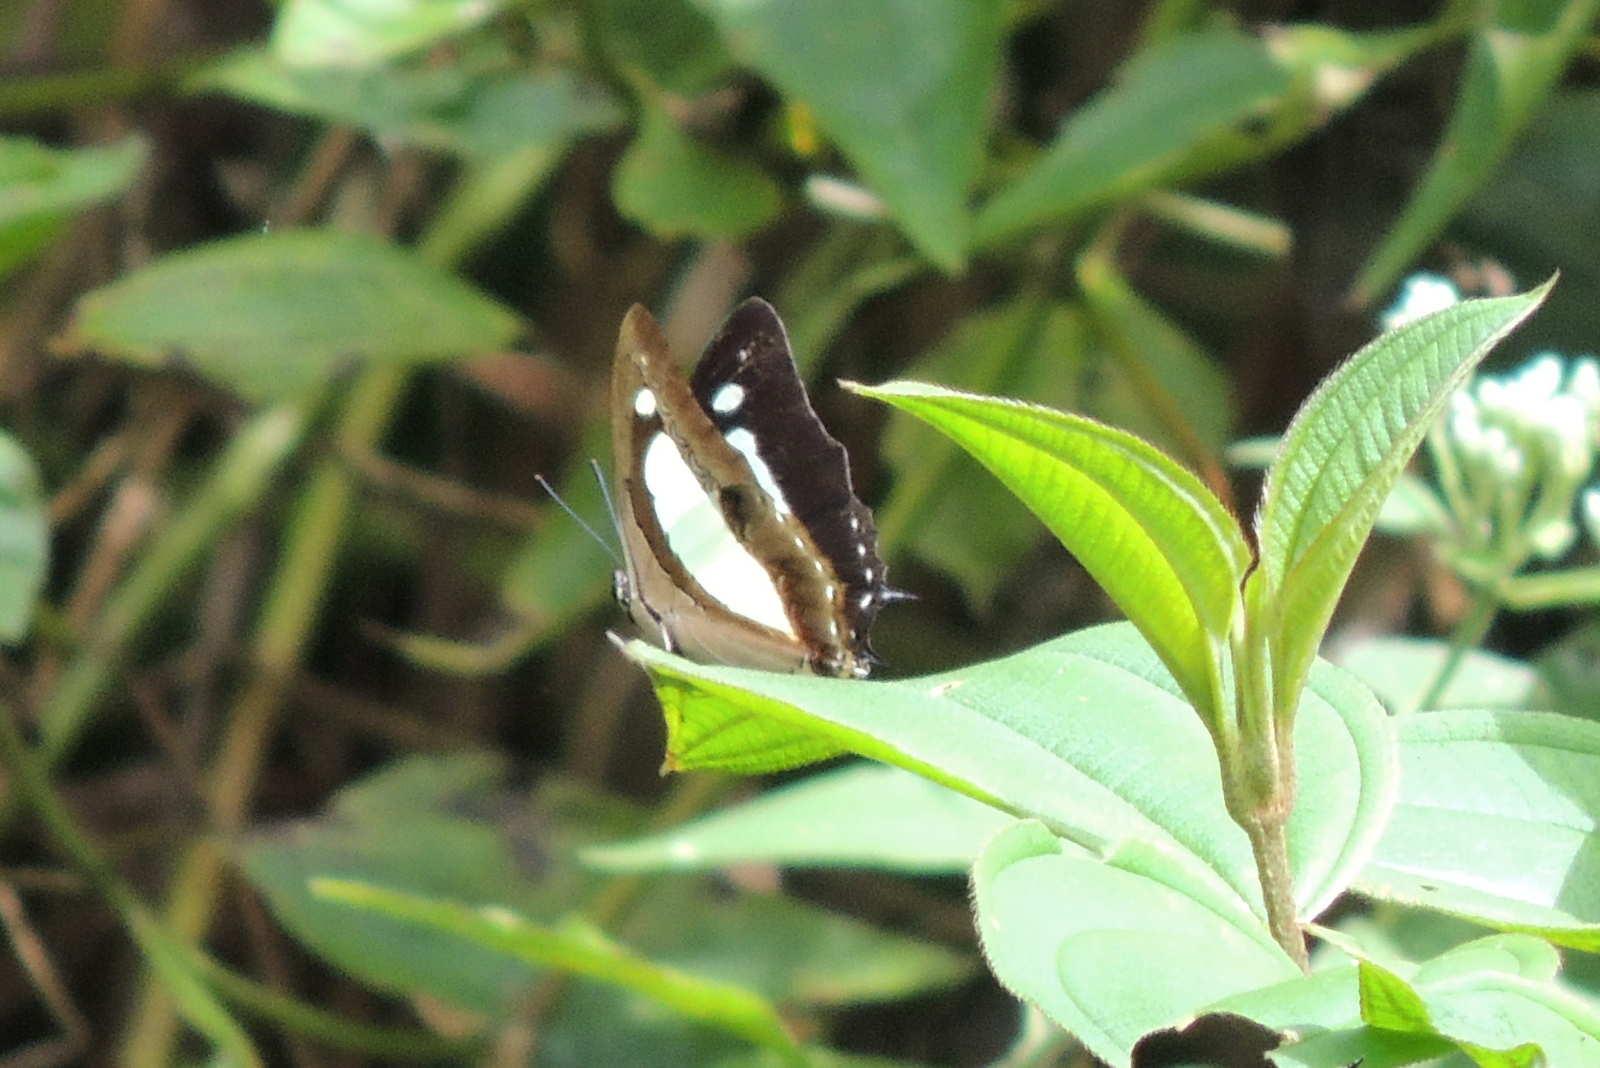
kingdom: Animalia
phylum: Arthropoda
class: Insecta
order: Lepidoptera
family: Nymphalidae
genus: Polyura
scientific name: Polyura athamas
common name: Common nawab
